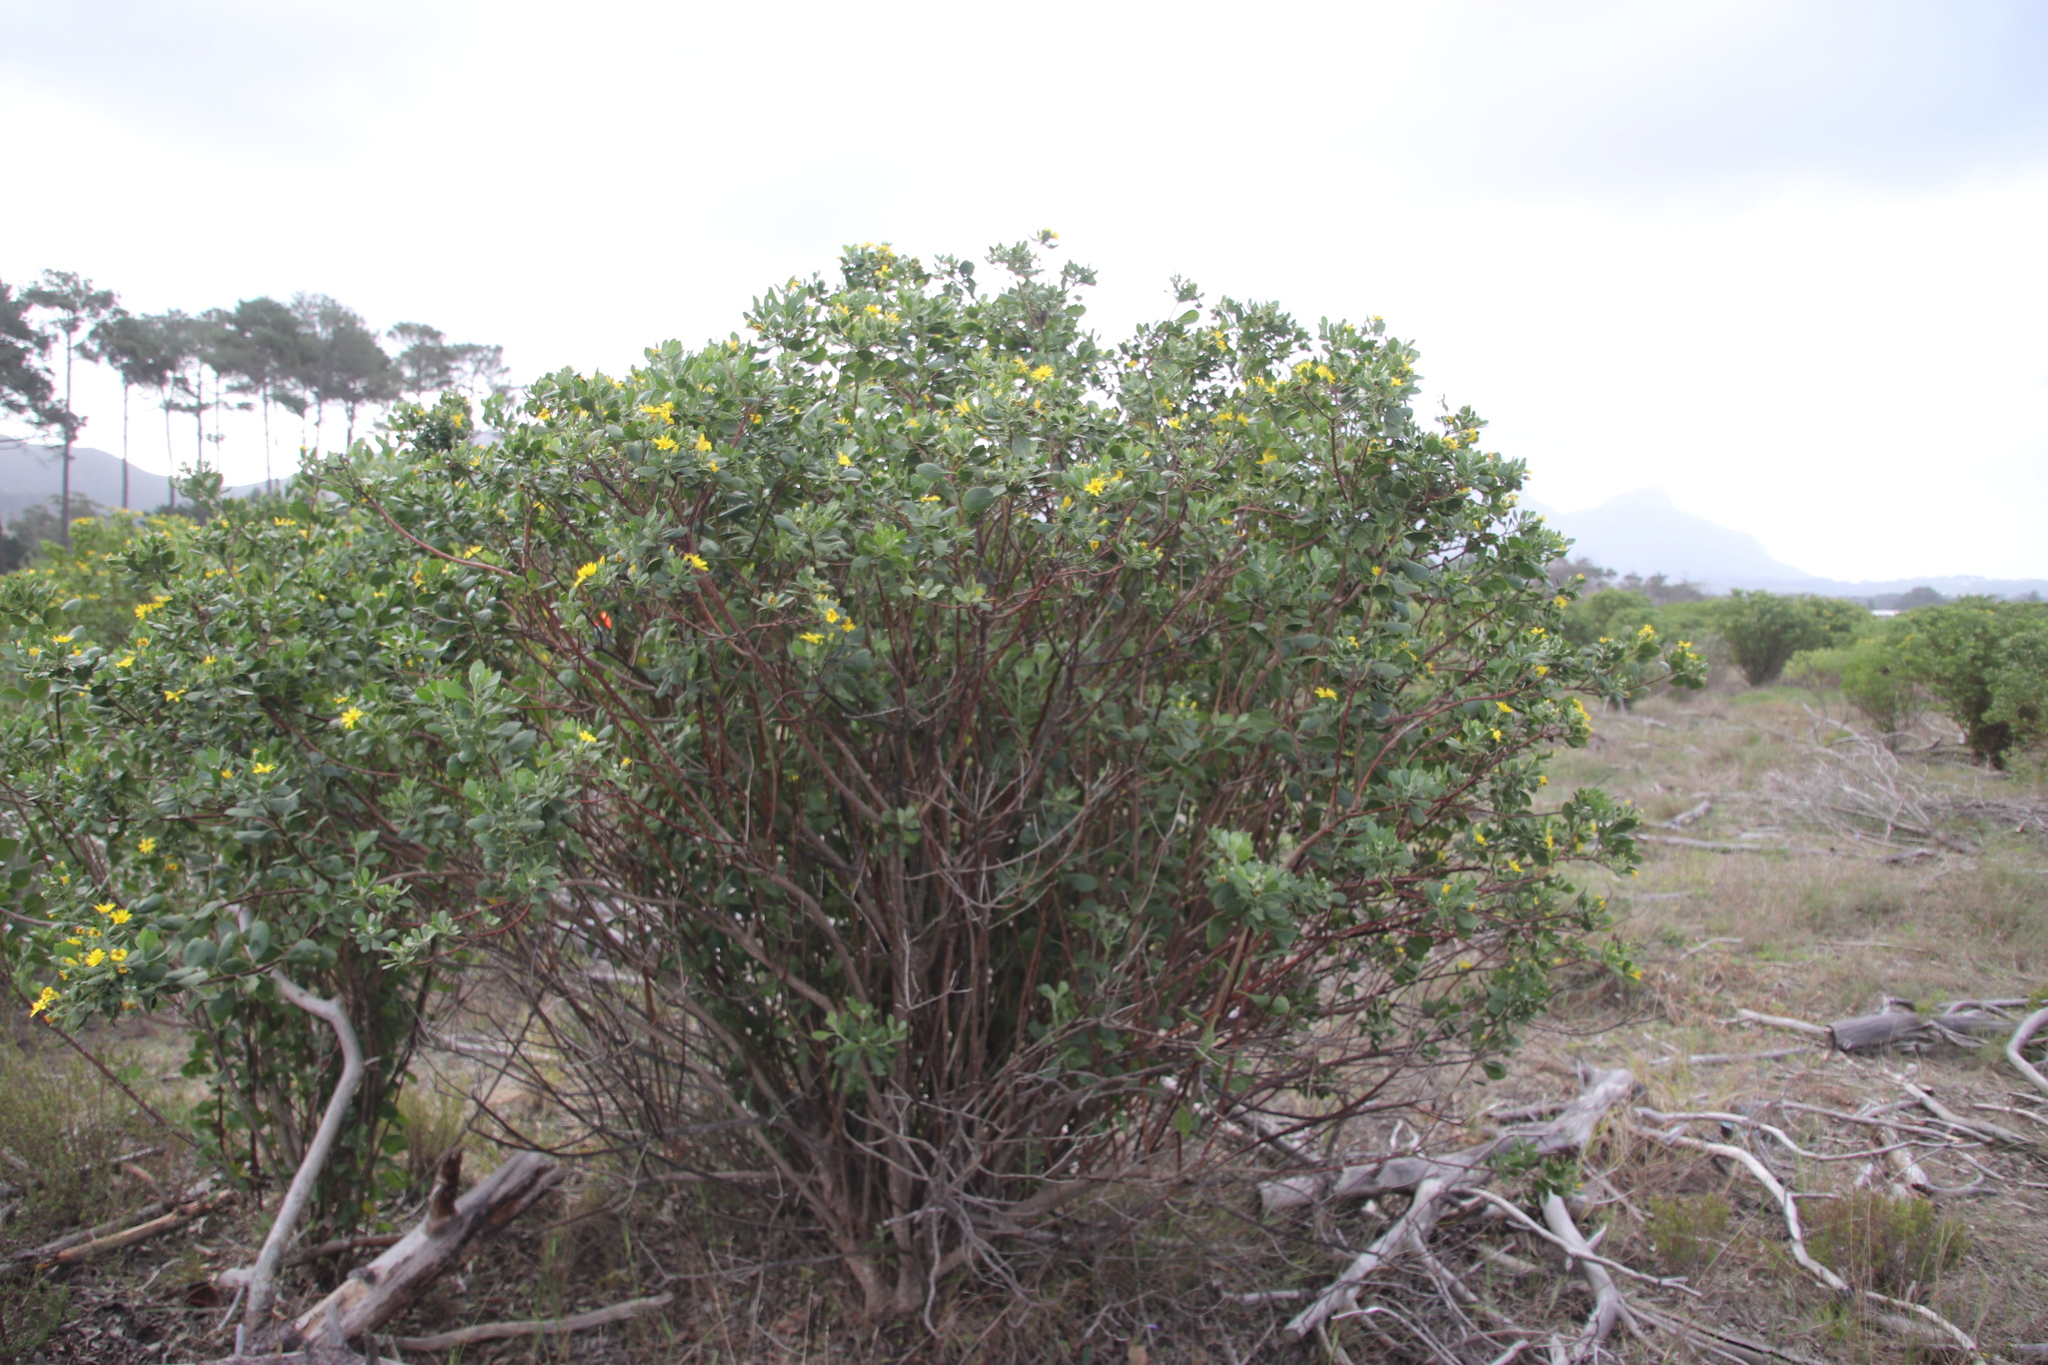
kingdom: Plantae
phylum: Tracheophyta
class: Magnoliopsida
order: Asterales
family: Asteraceae
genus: Osteospermum
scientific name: Osteospermum moniliferum
